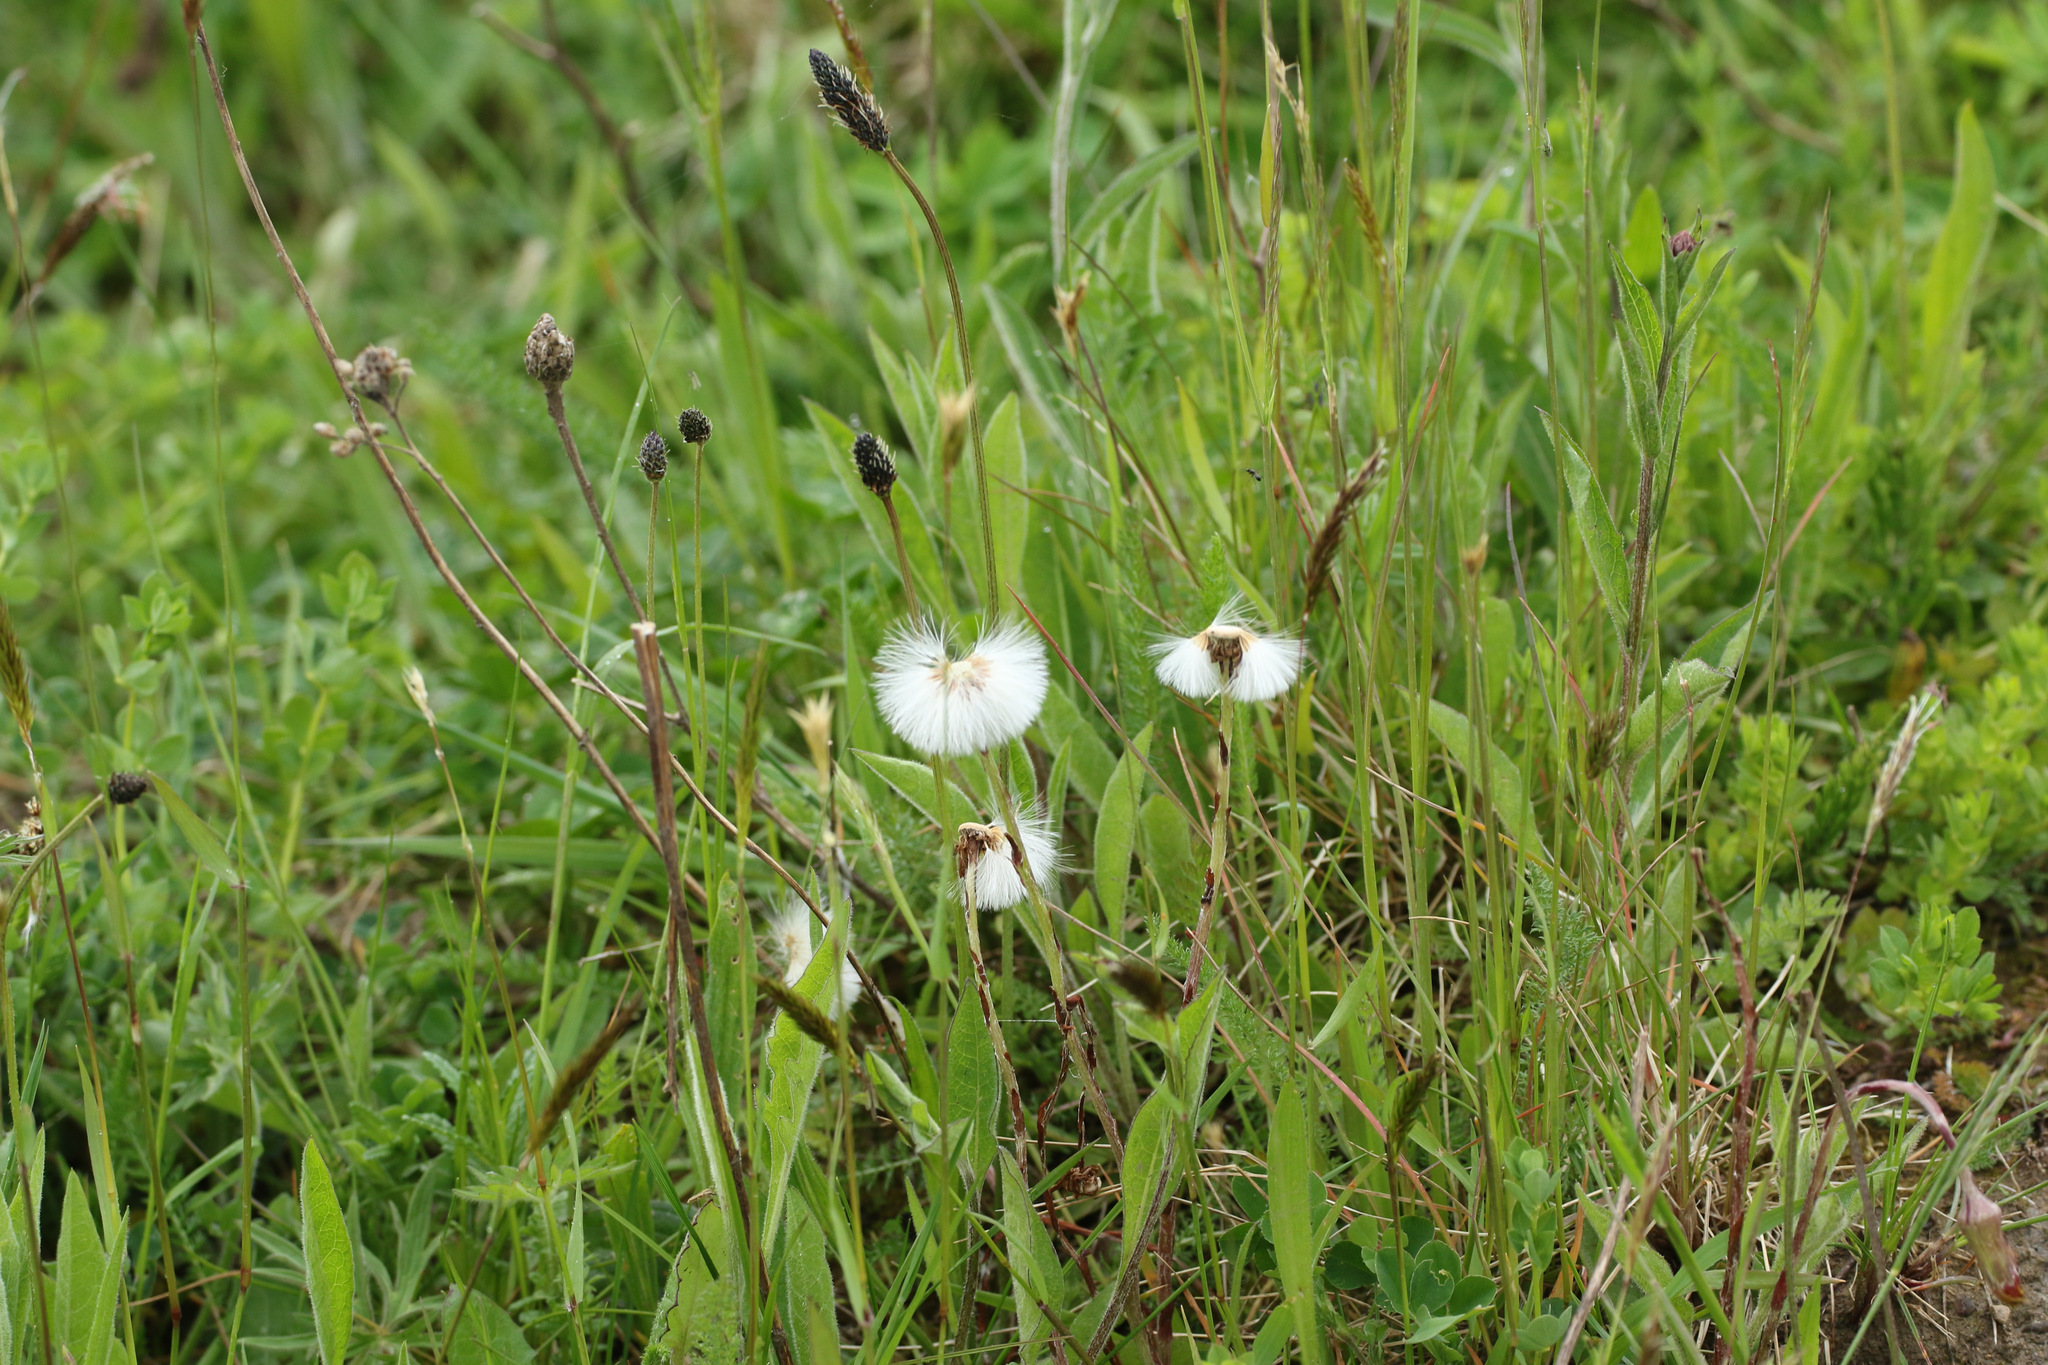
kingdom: Plantae
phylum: Tracheophyta
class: Magnoliopsida
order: Asterales
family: Asteraceae
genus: Tussilago
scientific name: Tussilago farfara
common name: Coltsfoot
